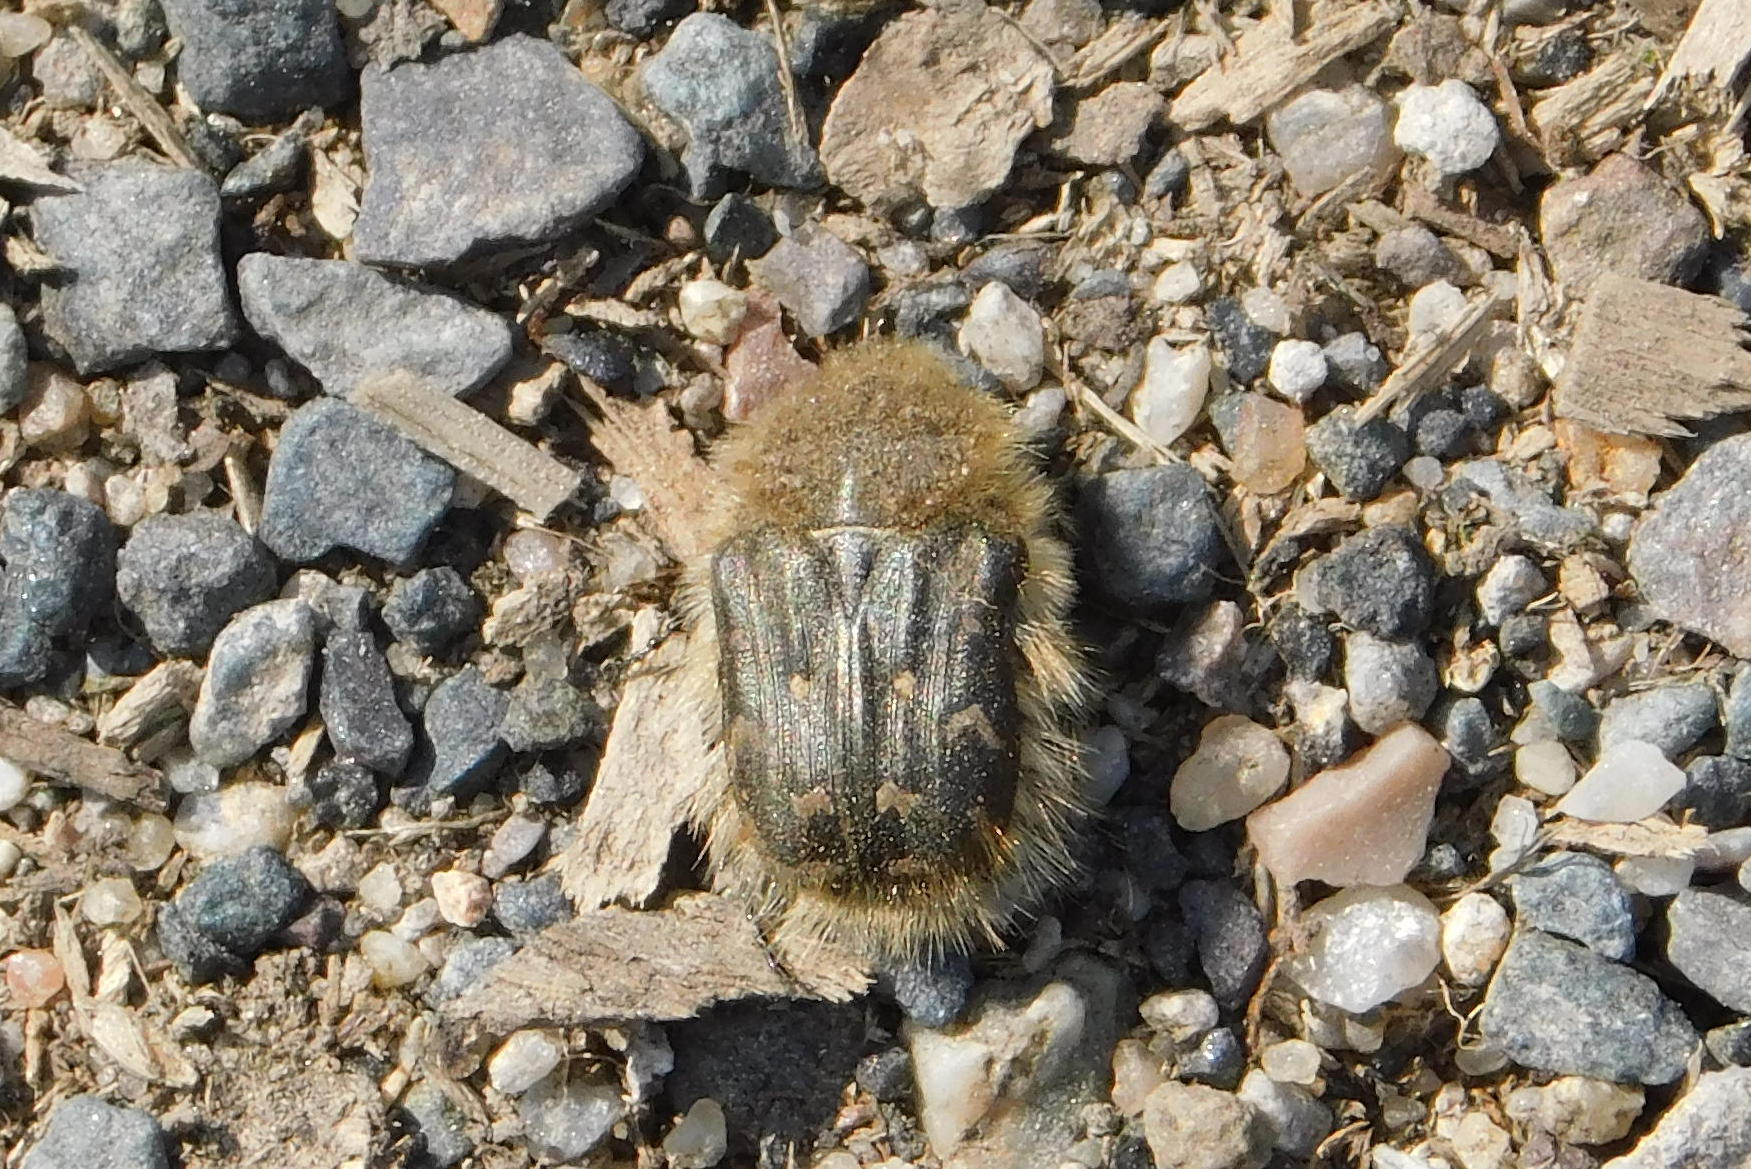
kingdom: Animalia
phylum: Arthropoda
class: Insecta
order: Coleoptera
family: Scarabaeidae
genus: Tropinota
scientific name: Tropinota hirta
